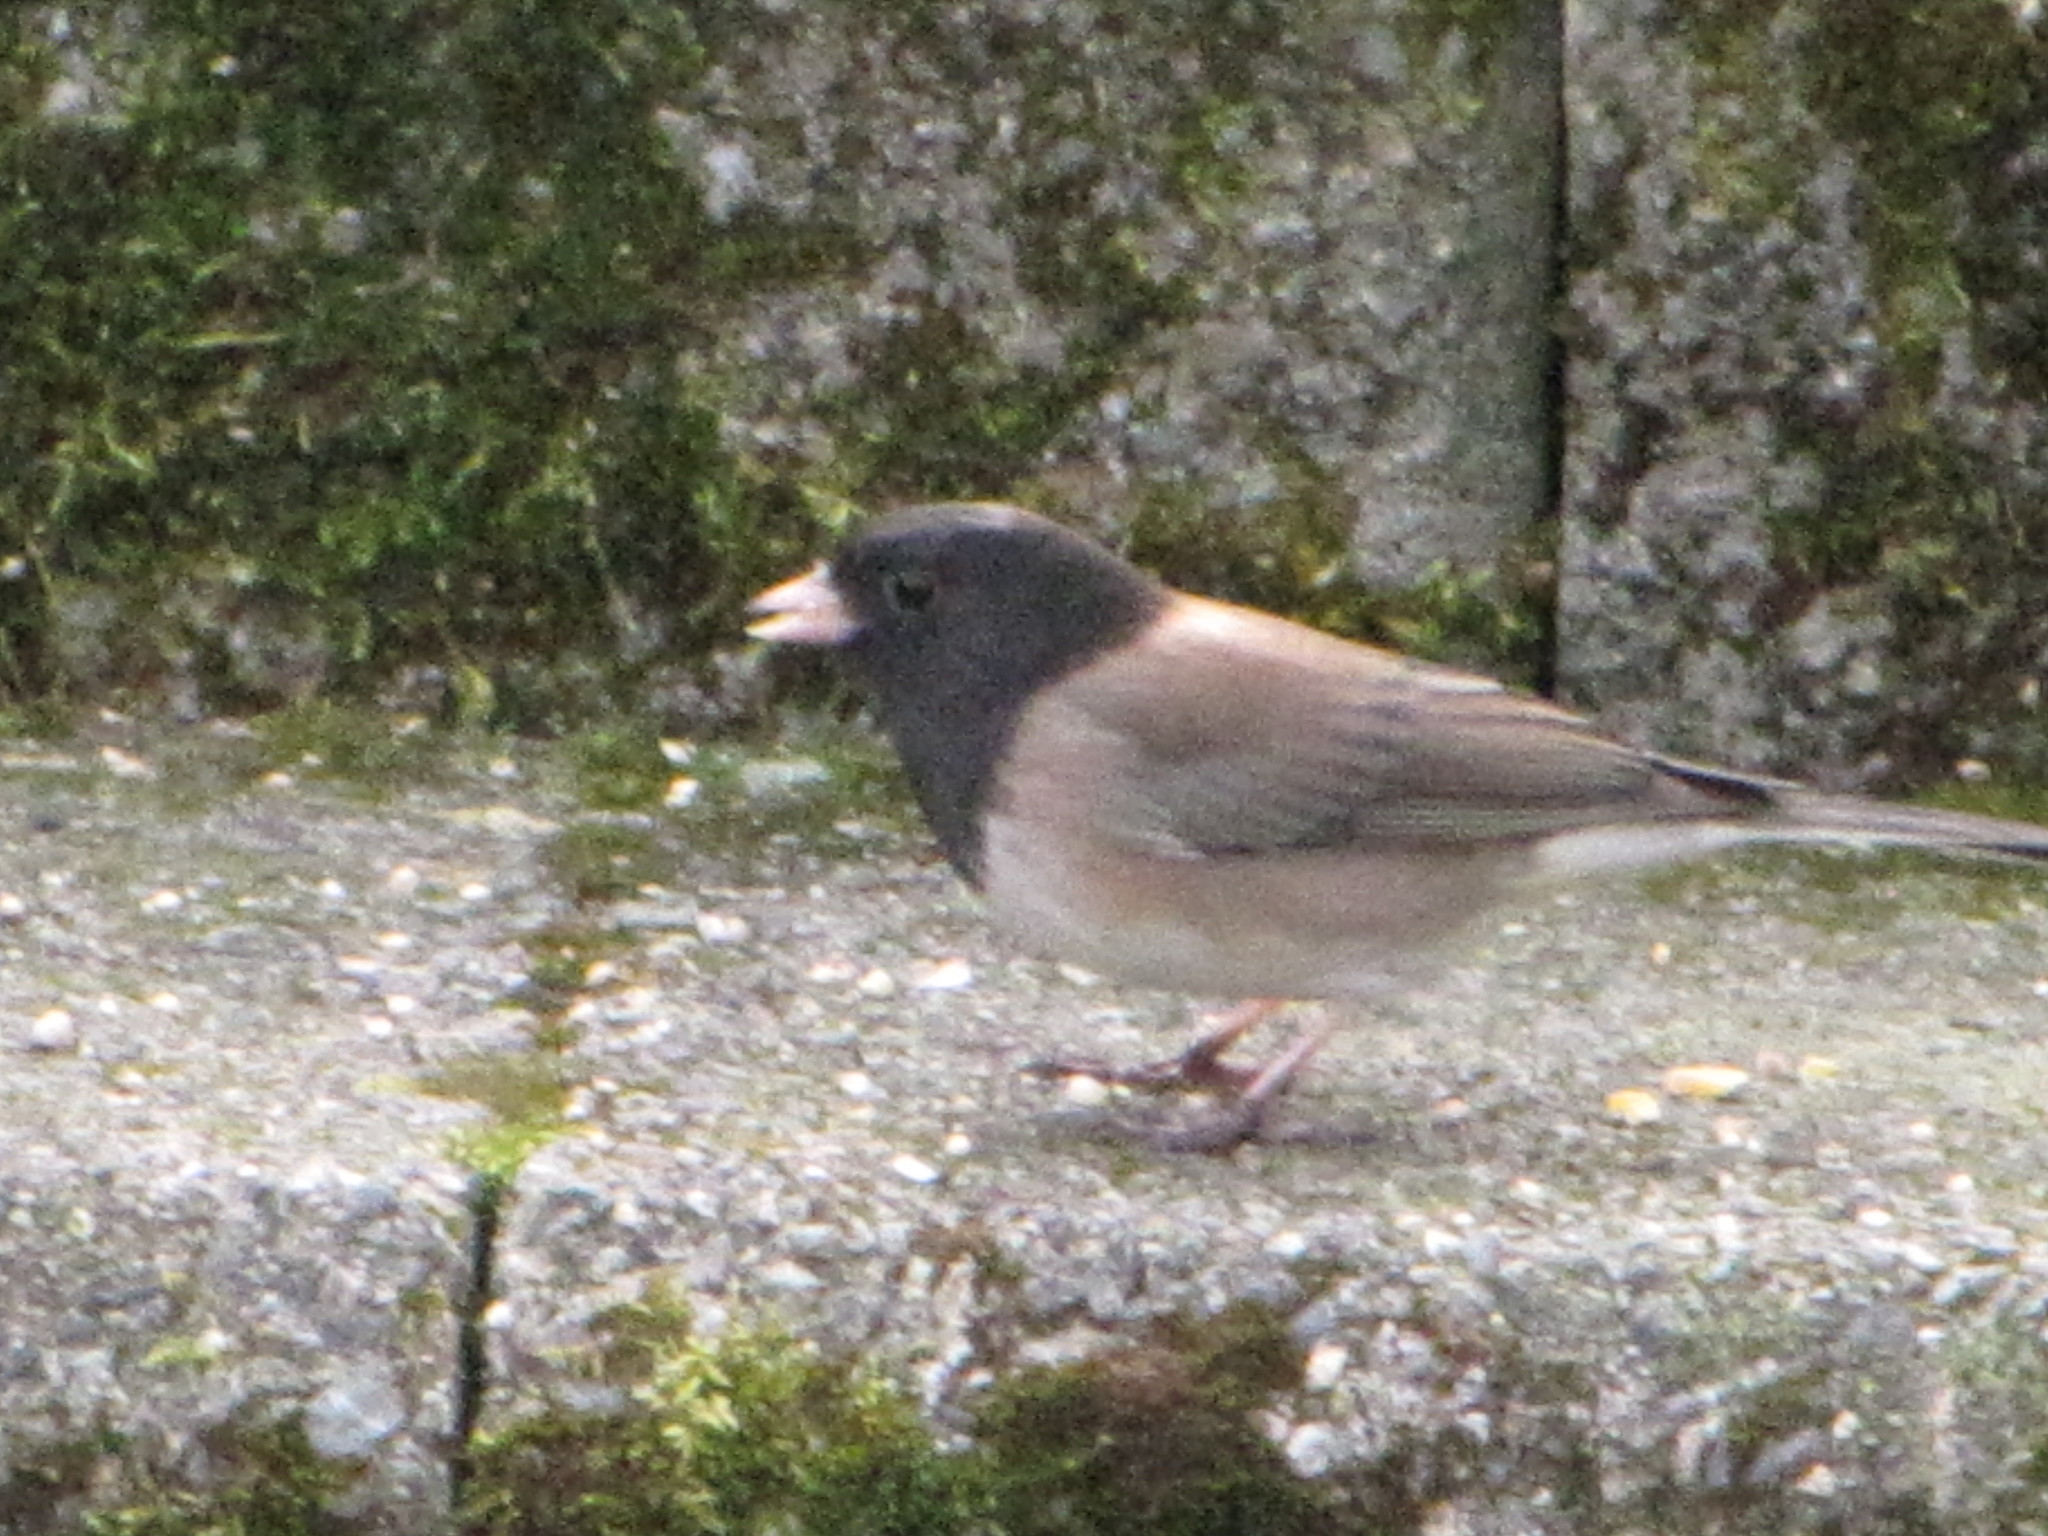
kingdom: Animalia
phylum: Chordata
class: Aves
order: Passeriformes
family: Passerellidae
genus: Junco
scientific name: Junco hyemalis
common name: Dark-eyed junco
